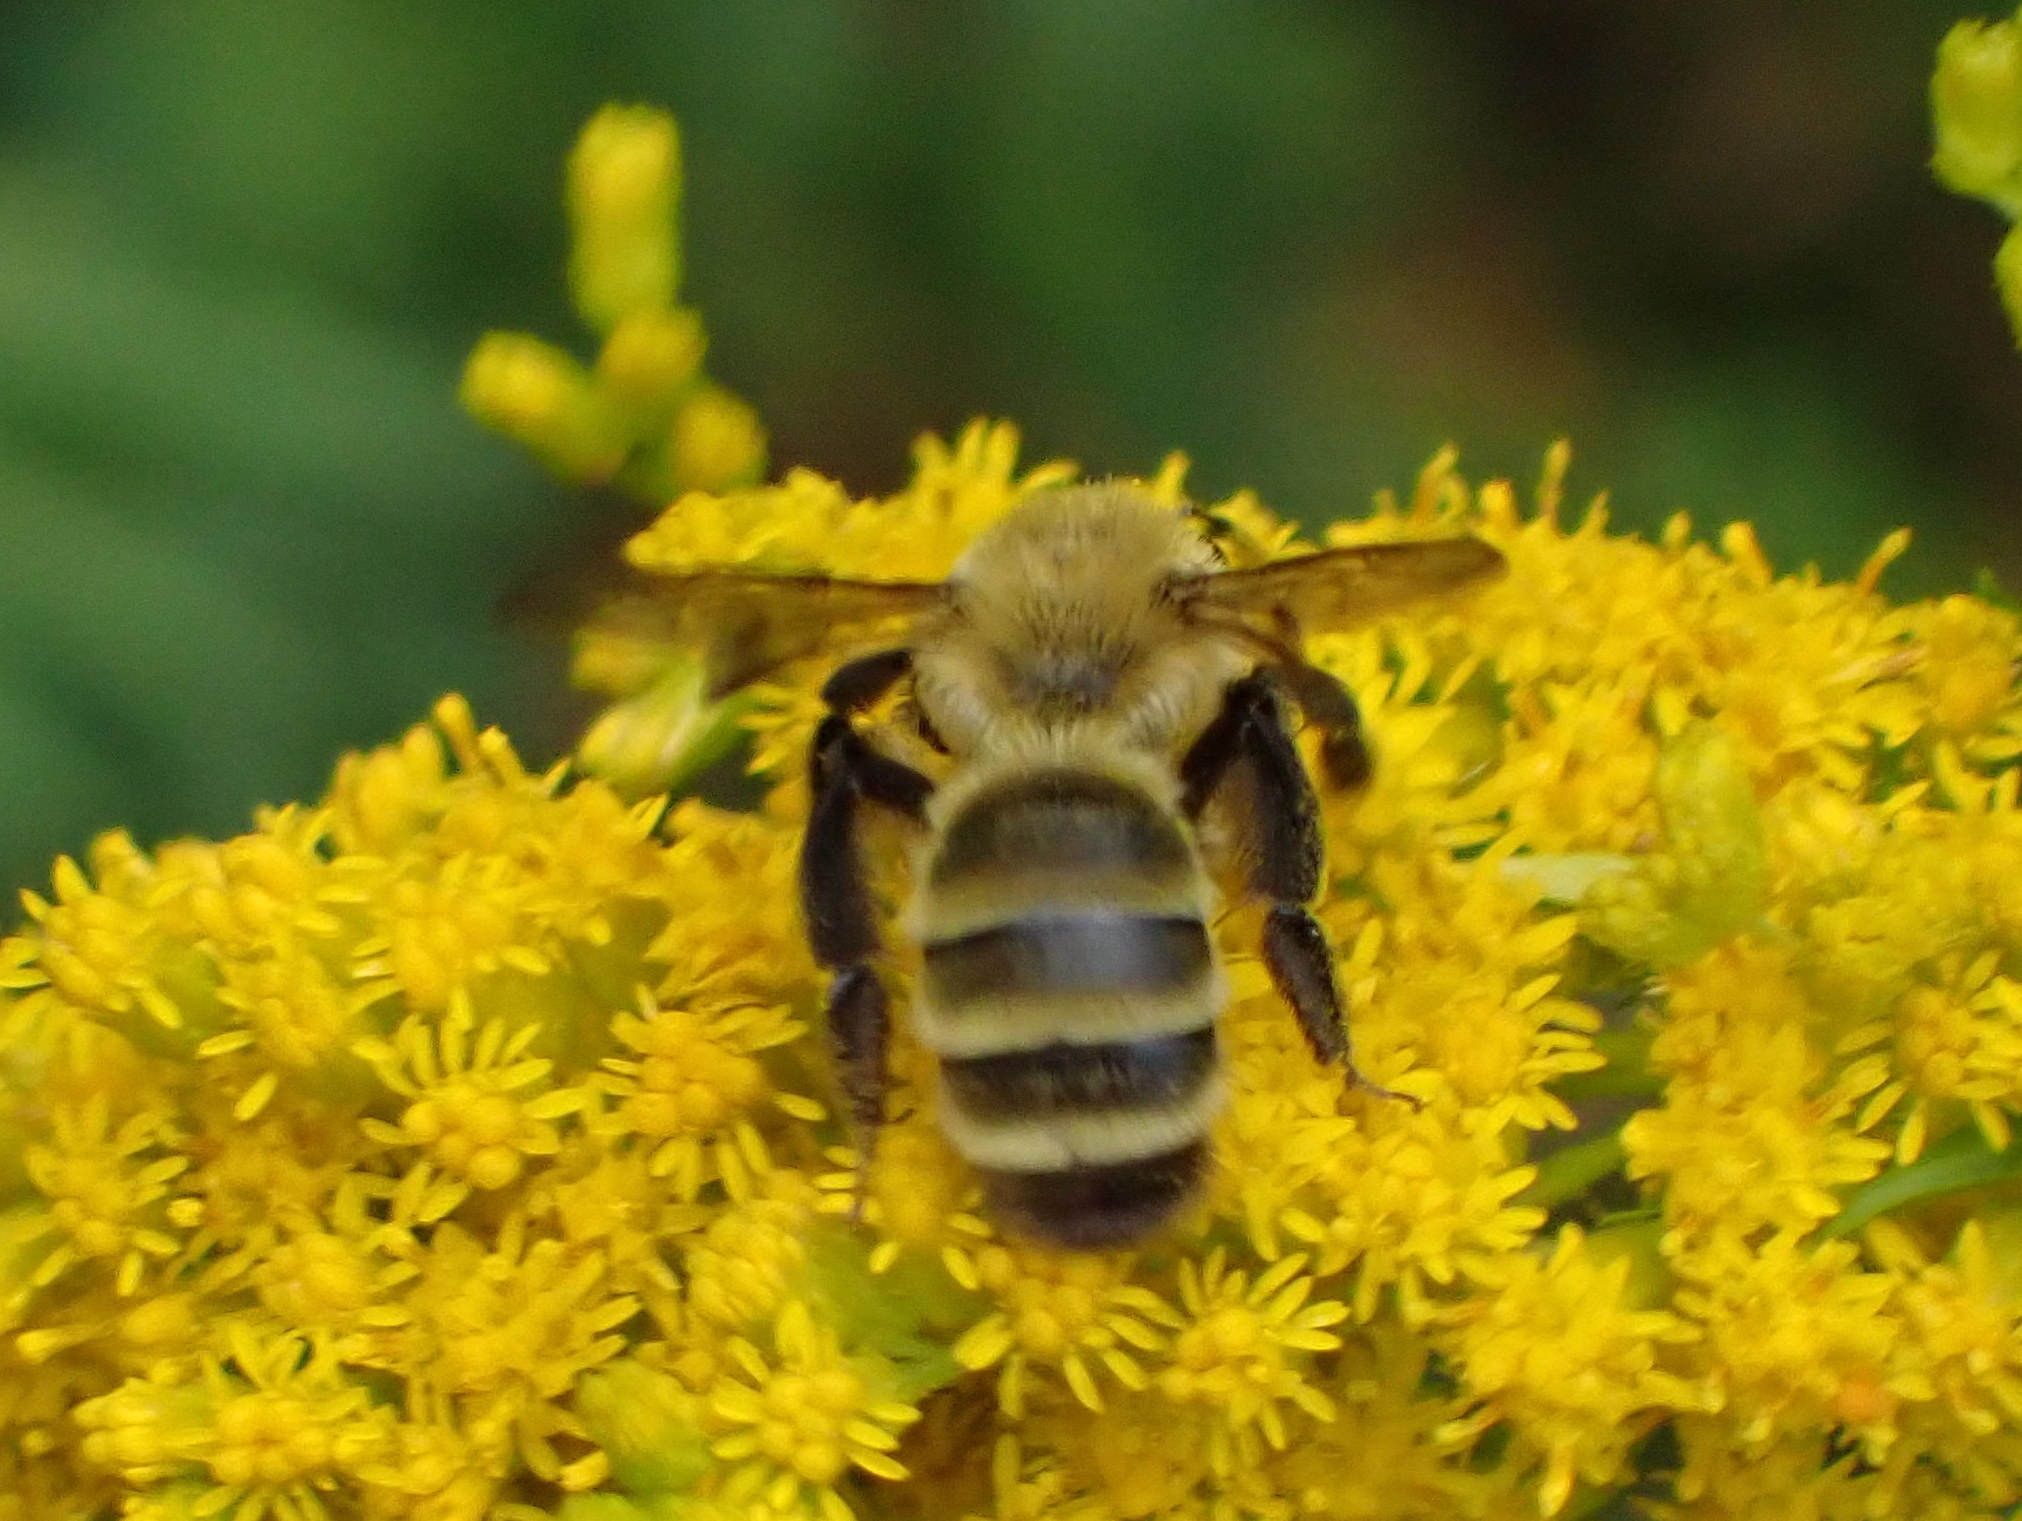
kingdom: Animalia
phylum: Arthropoda
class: Insecta
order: Hymenoptera
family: Andrenidae
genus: Andrena
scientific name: Andrena hirticincta
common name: Hairy-banded mining bee
